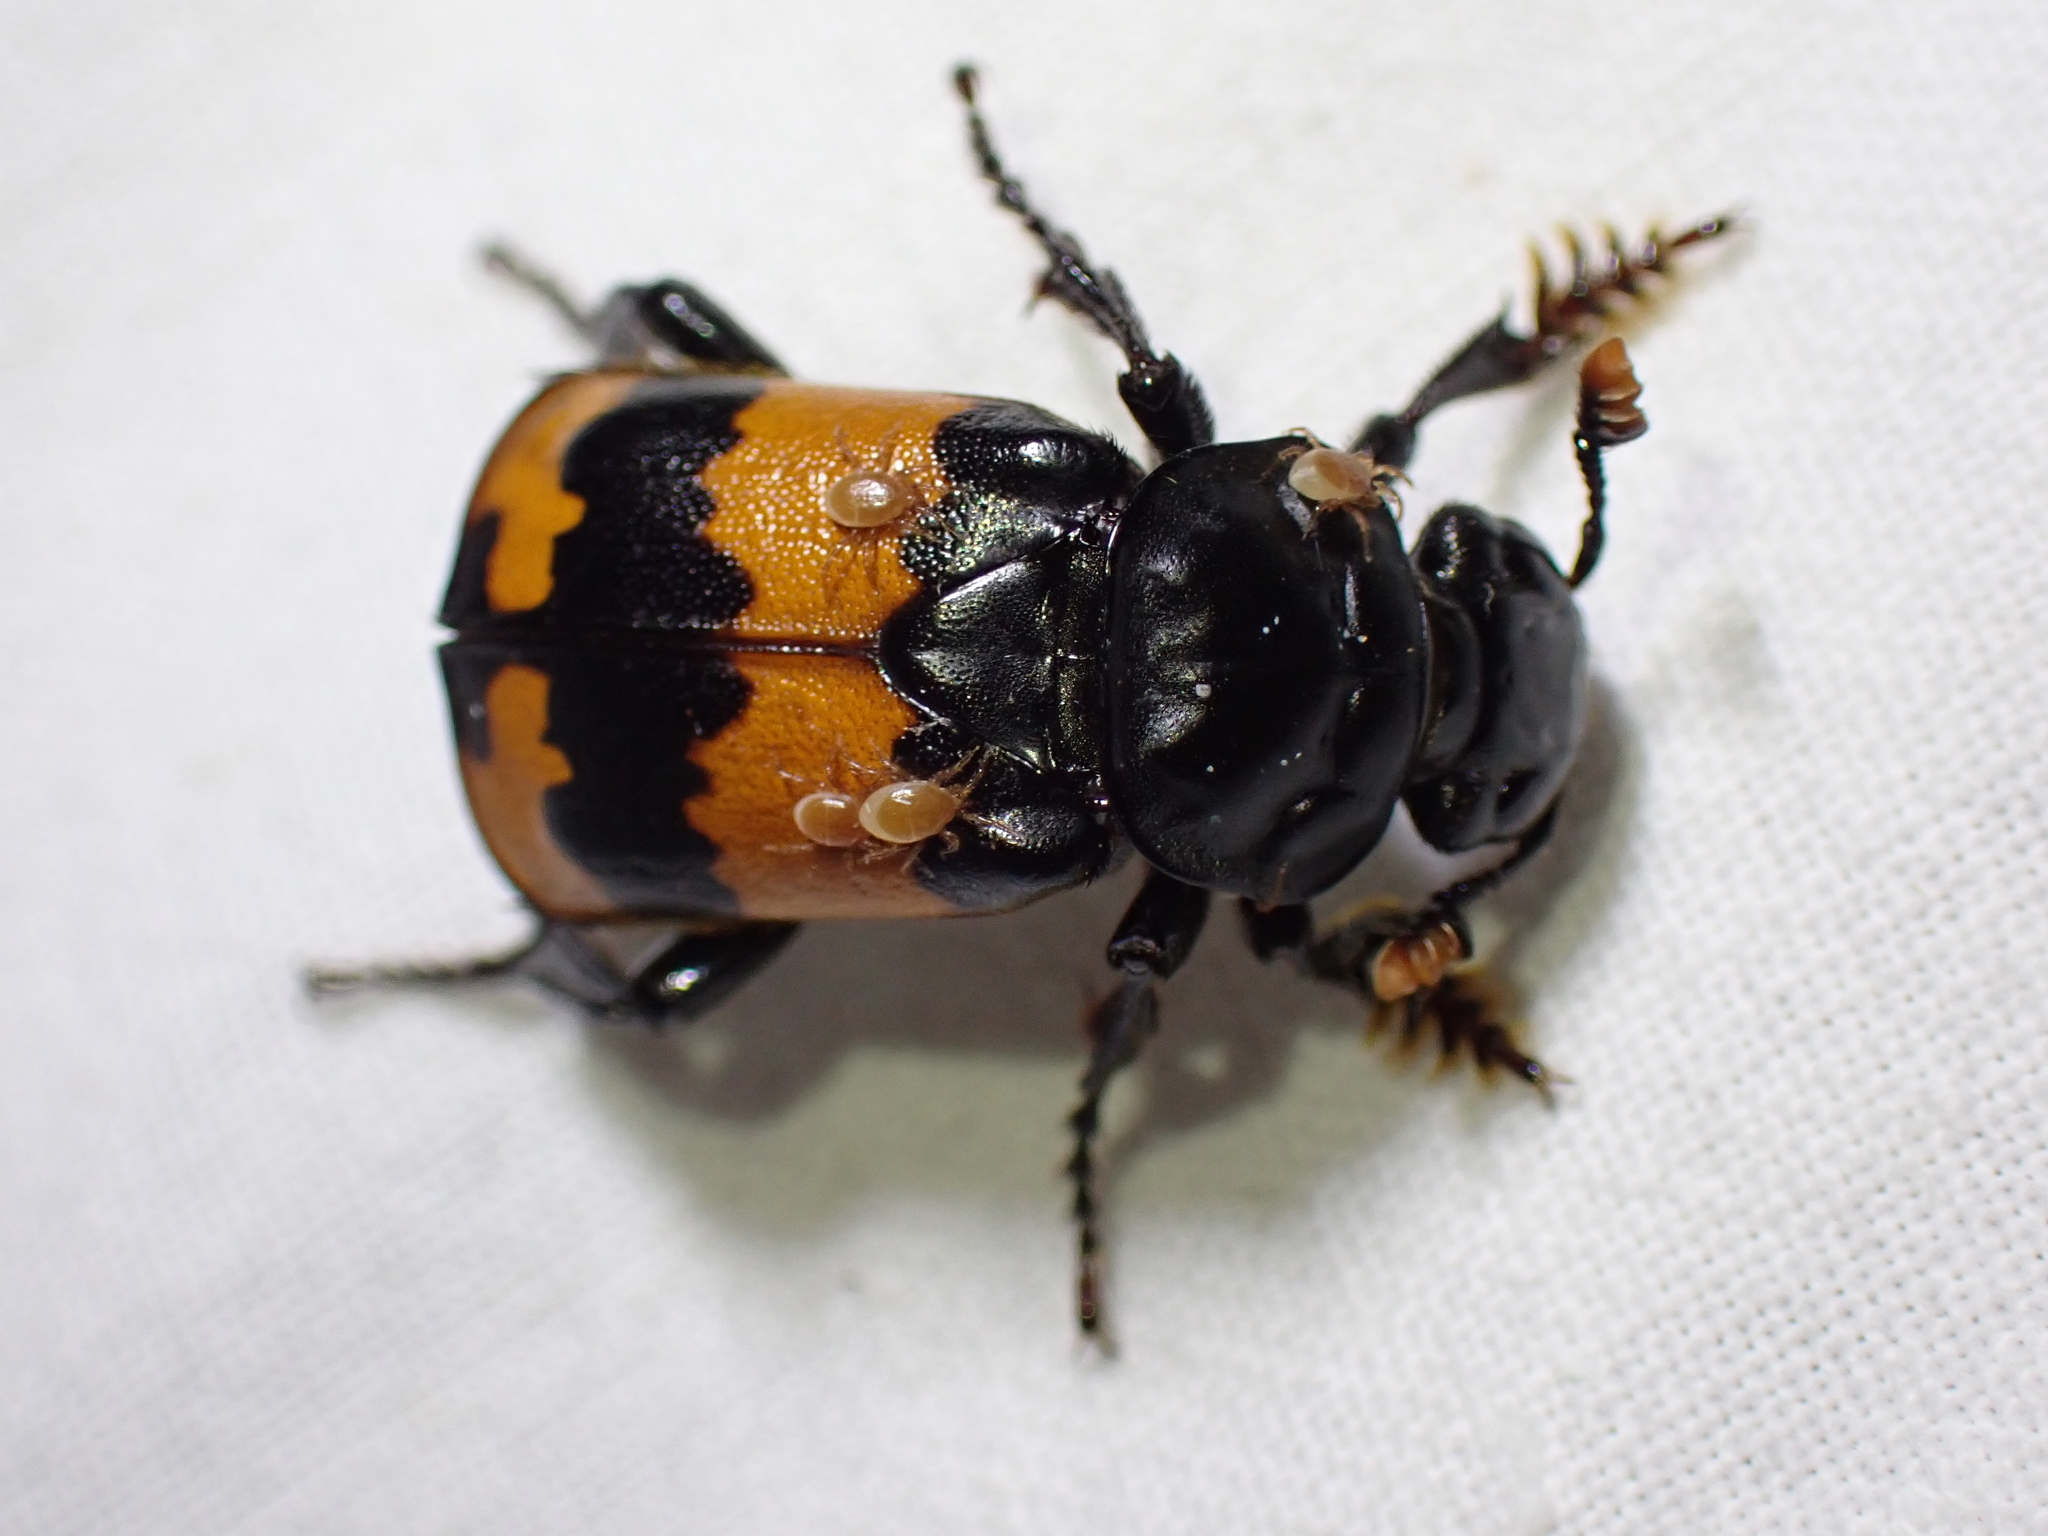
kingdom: Animalia
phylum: Arthropoda
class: Insecta
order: Coleoptera
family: Staphylinidae
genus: Nicrophorus
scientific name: Nicrophorus investigator
